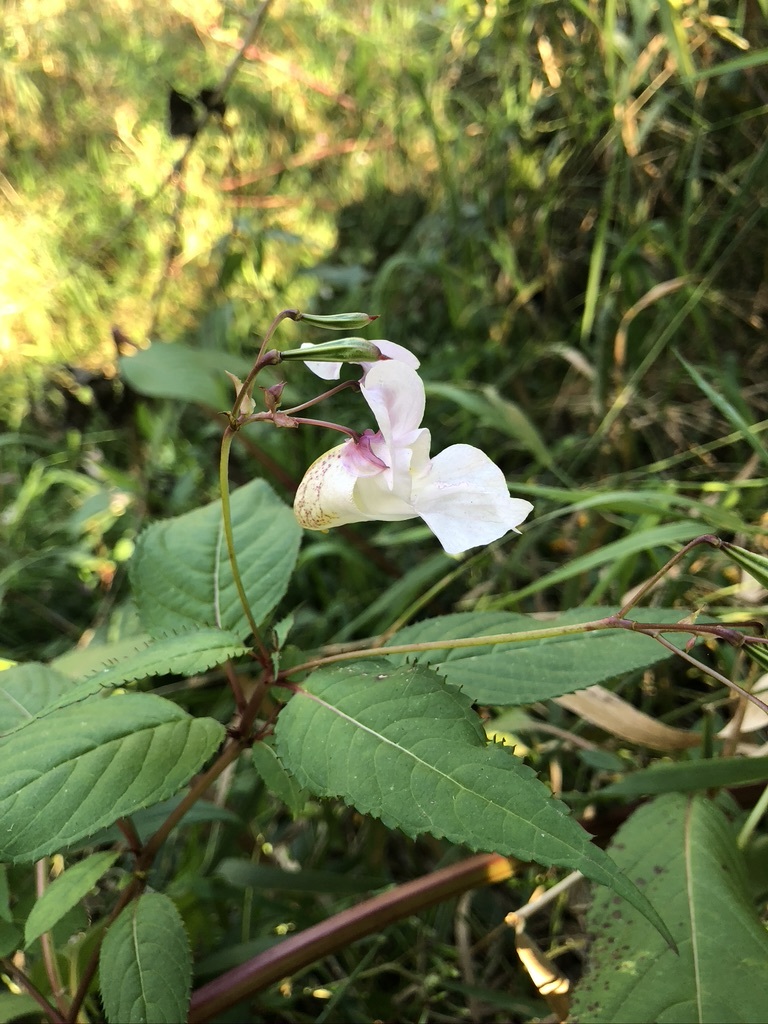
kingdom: Plantae
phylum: Tracheophyta
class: Magnoliopsida
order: Ericales
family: Balsaminaceae
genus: Impatiens
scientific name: Impatiens glandulifera
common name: Himalayan balsam
